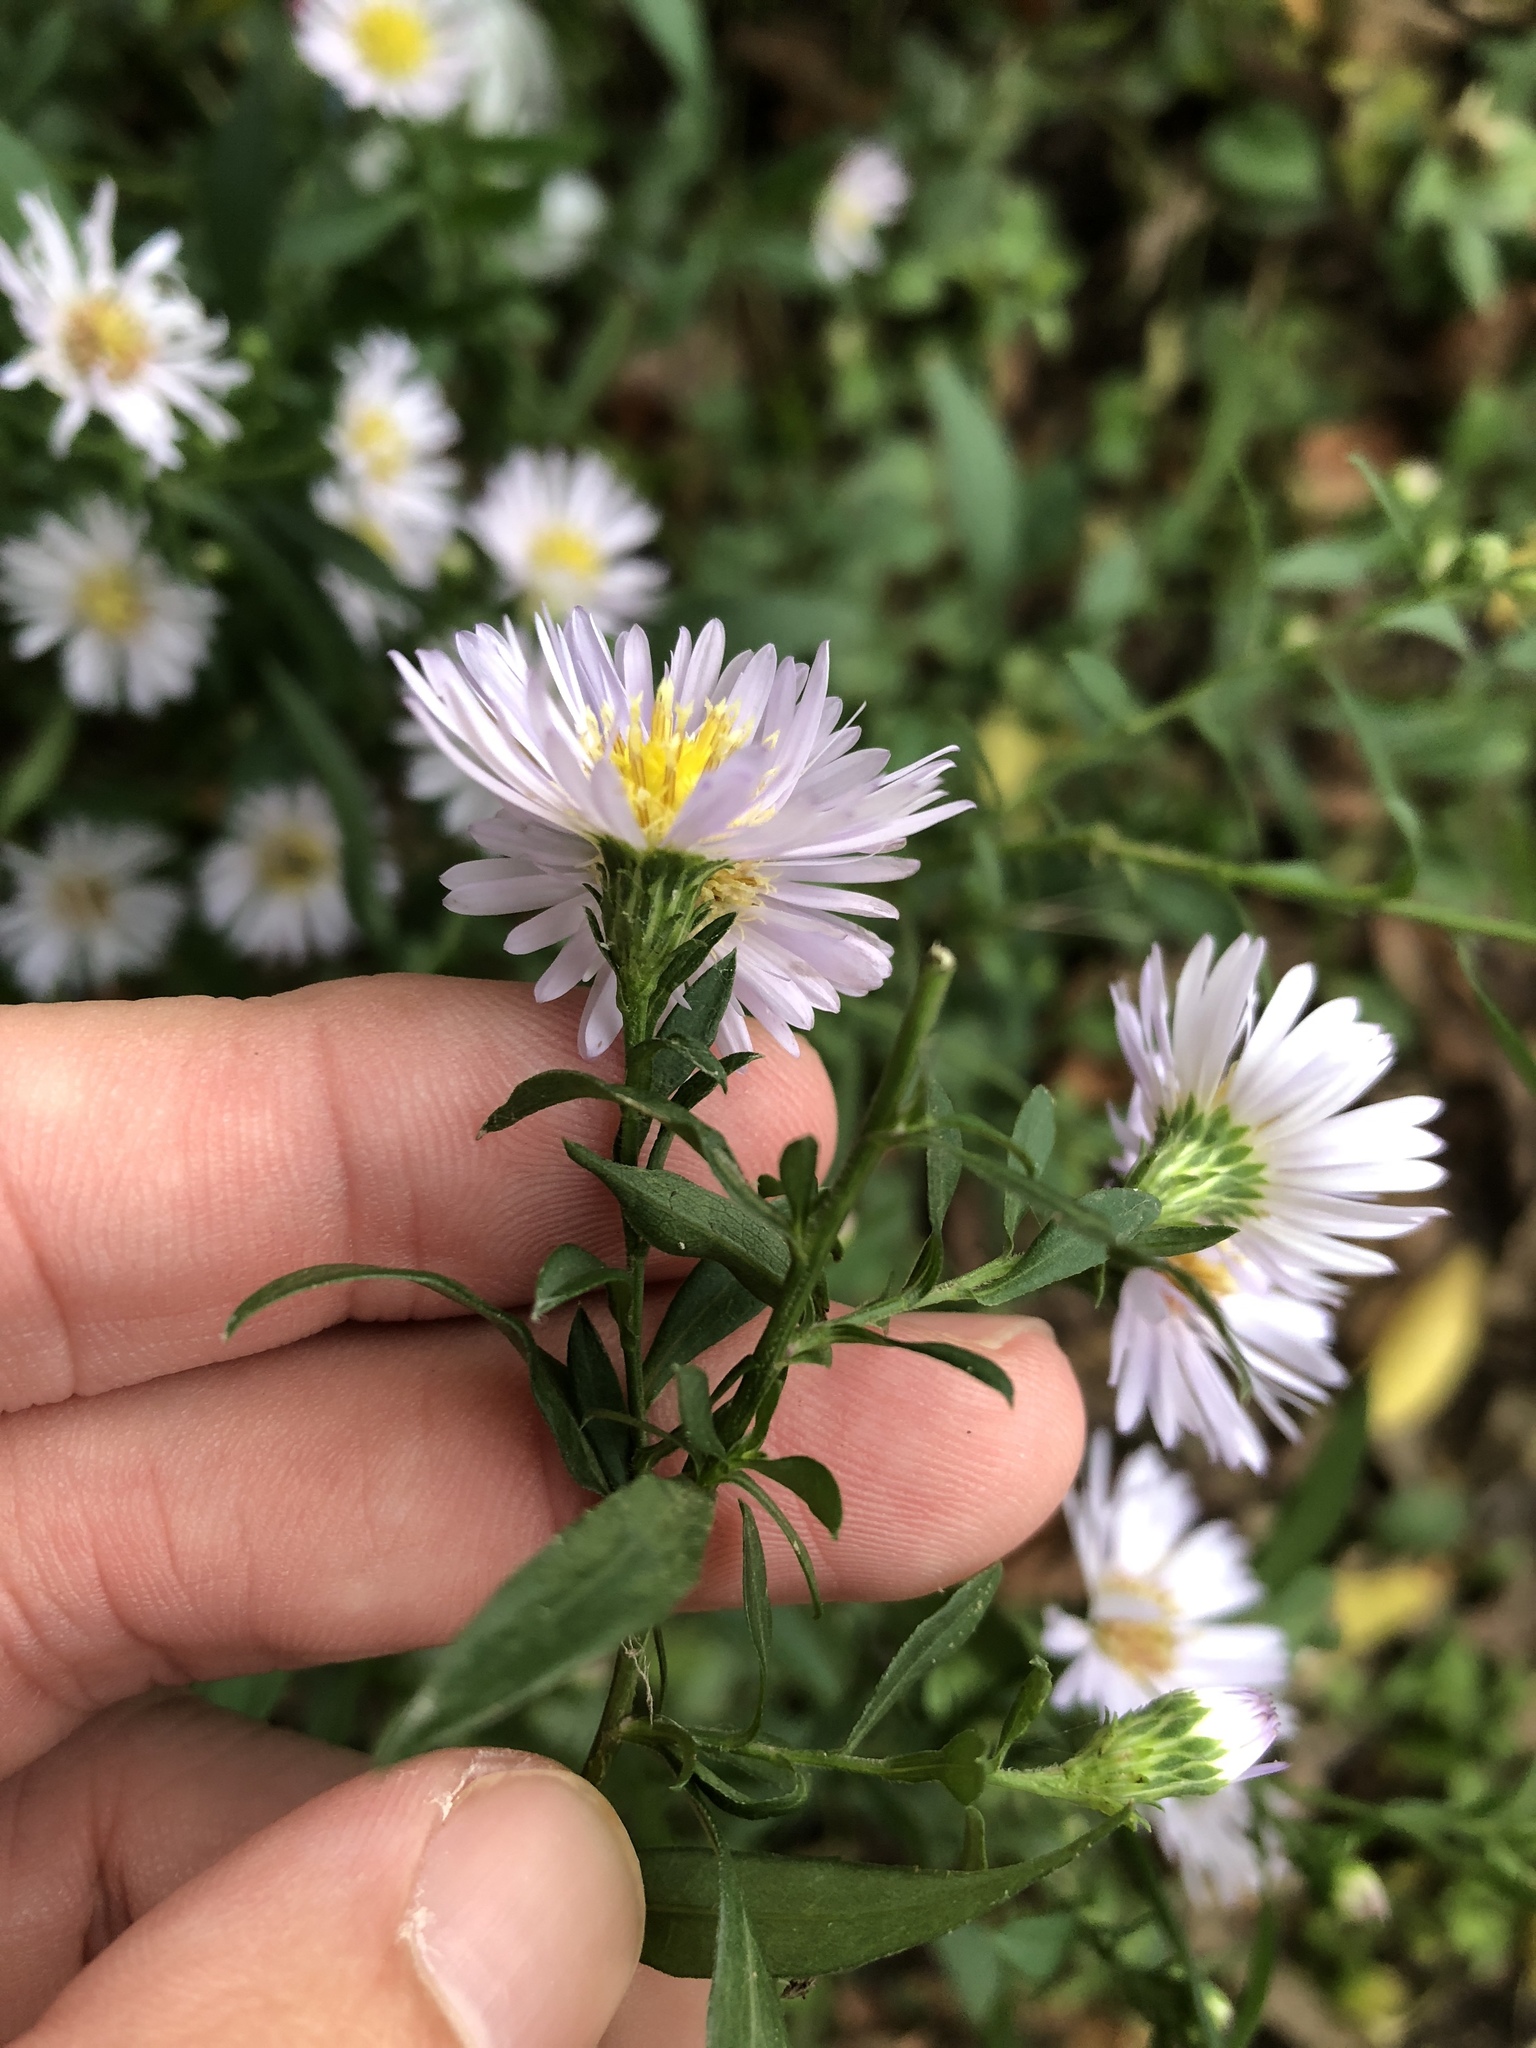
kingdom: Plantae
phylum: Tracheophyta
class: Magnoliopsida
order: Asterales
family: Asteraceae
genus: Symphyotrichum
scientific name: Symphyotrichum lanceolatum
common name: Panicled aster
